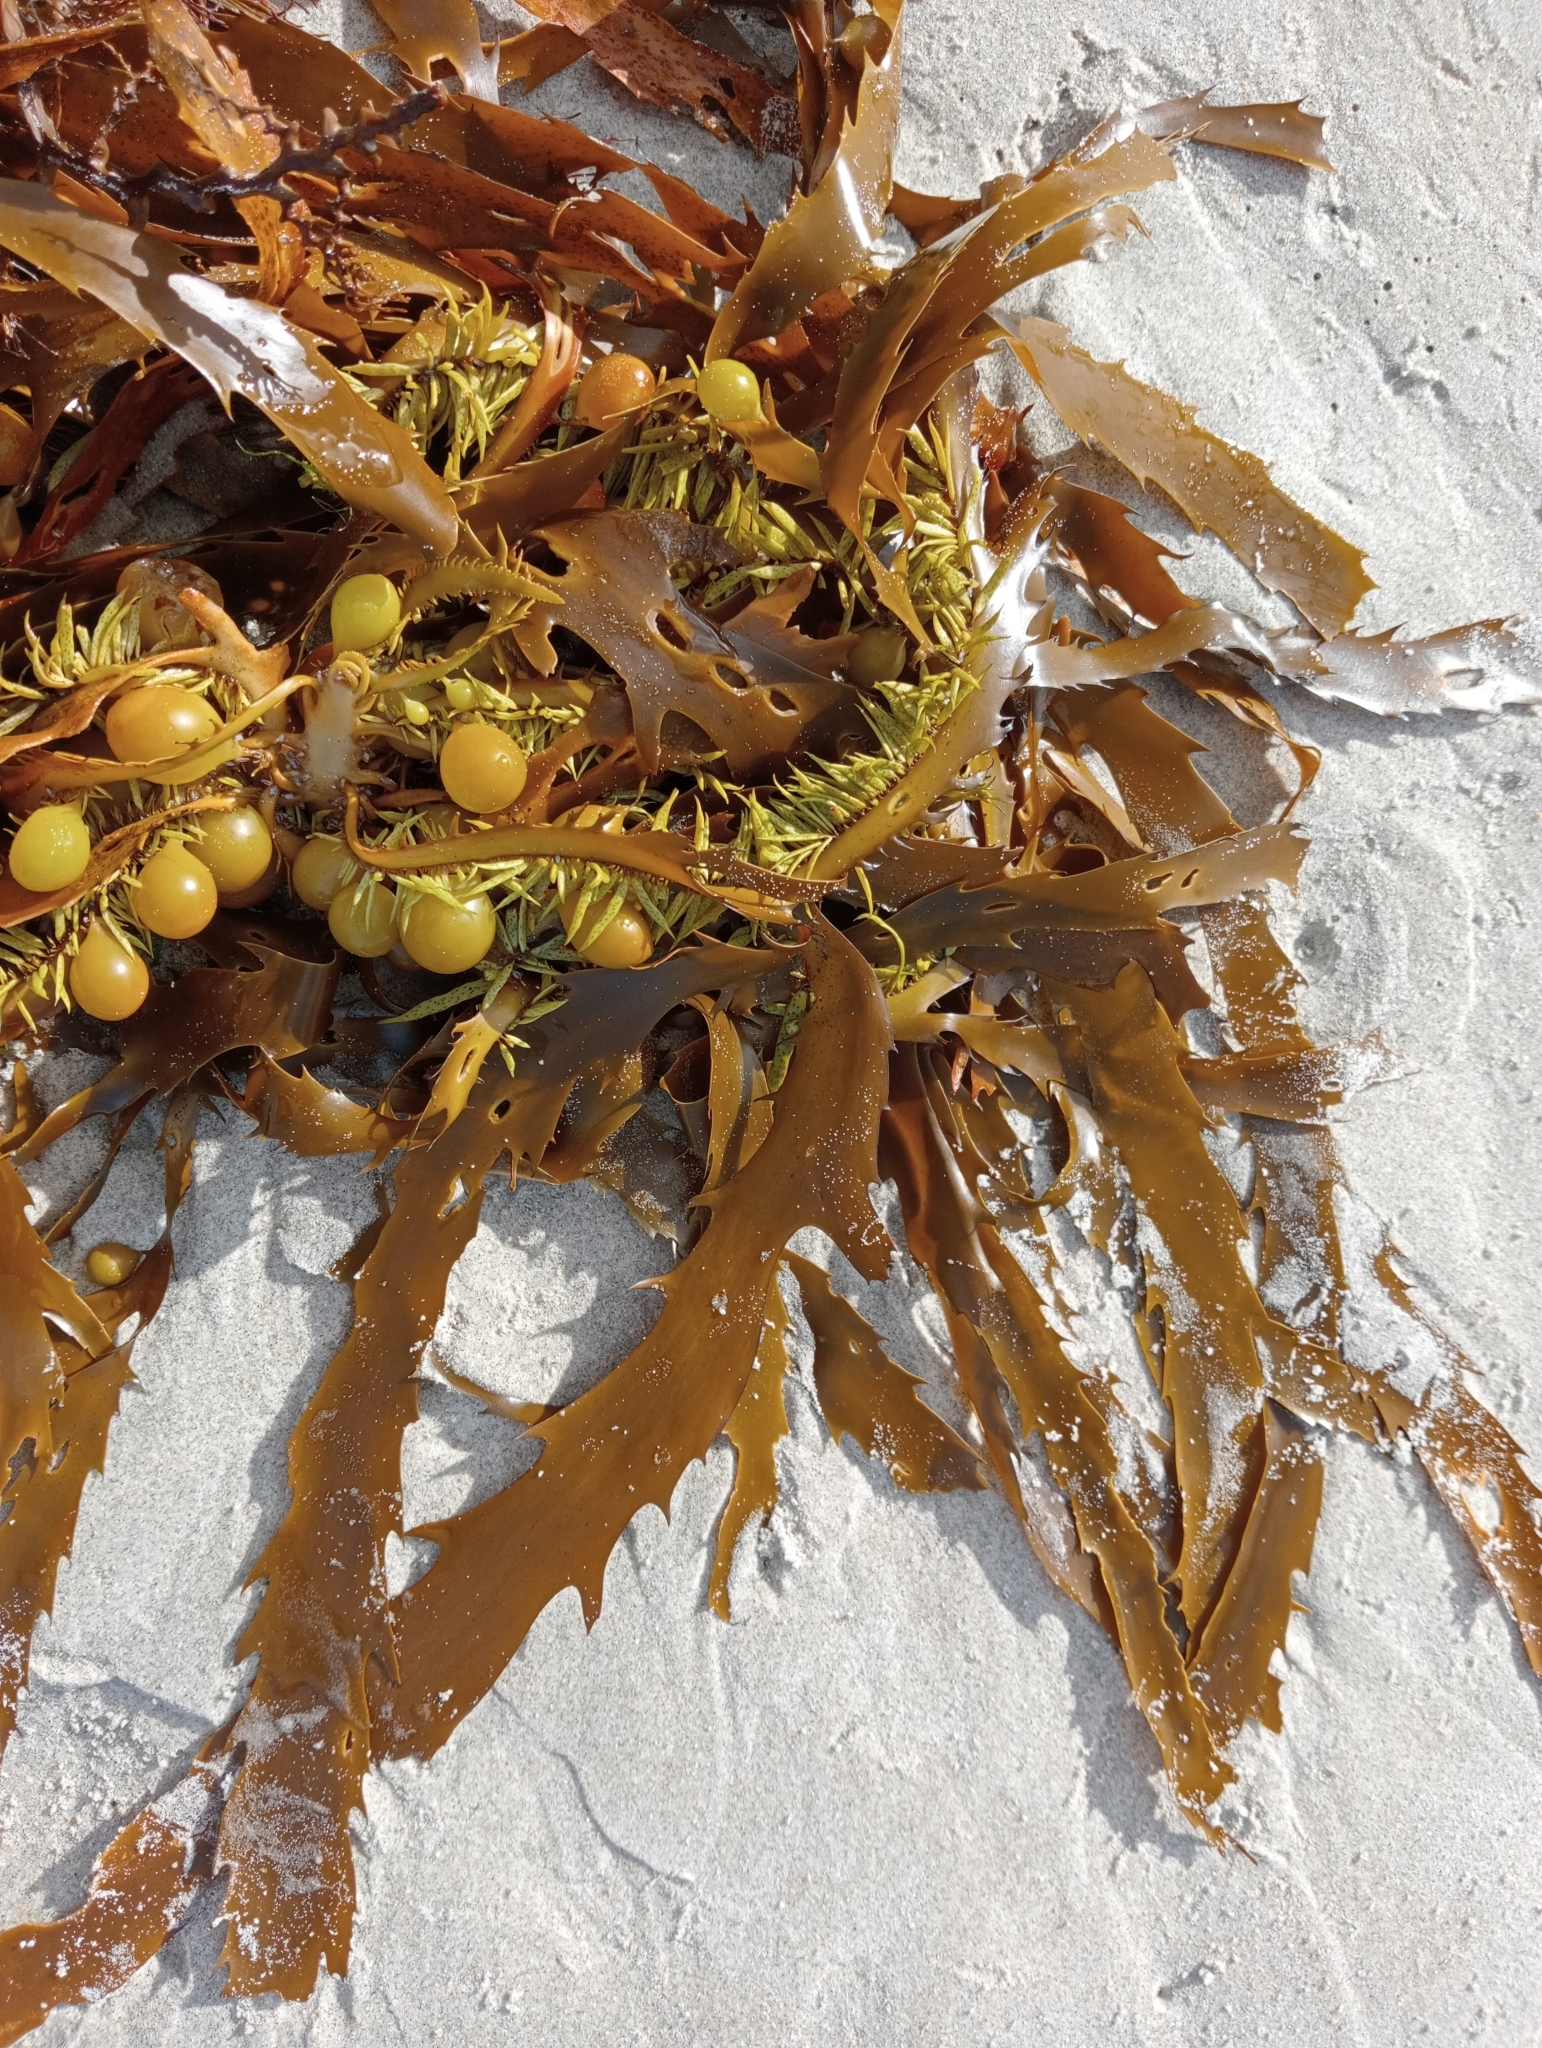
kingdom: Chromista
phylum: Ochrophyta
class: Phaeophyceae
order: Fucales
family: Seirococcaceae
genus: Marginariella
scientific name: Marginariella urvilliana
